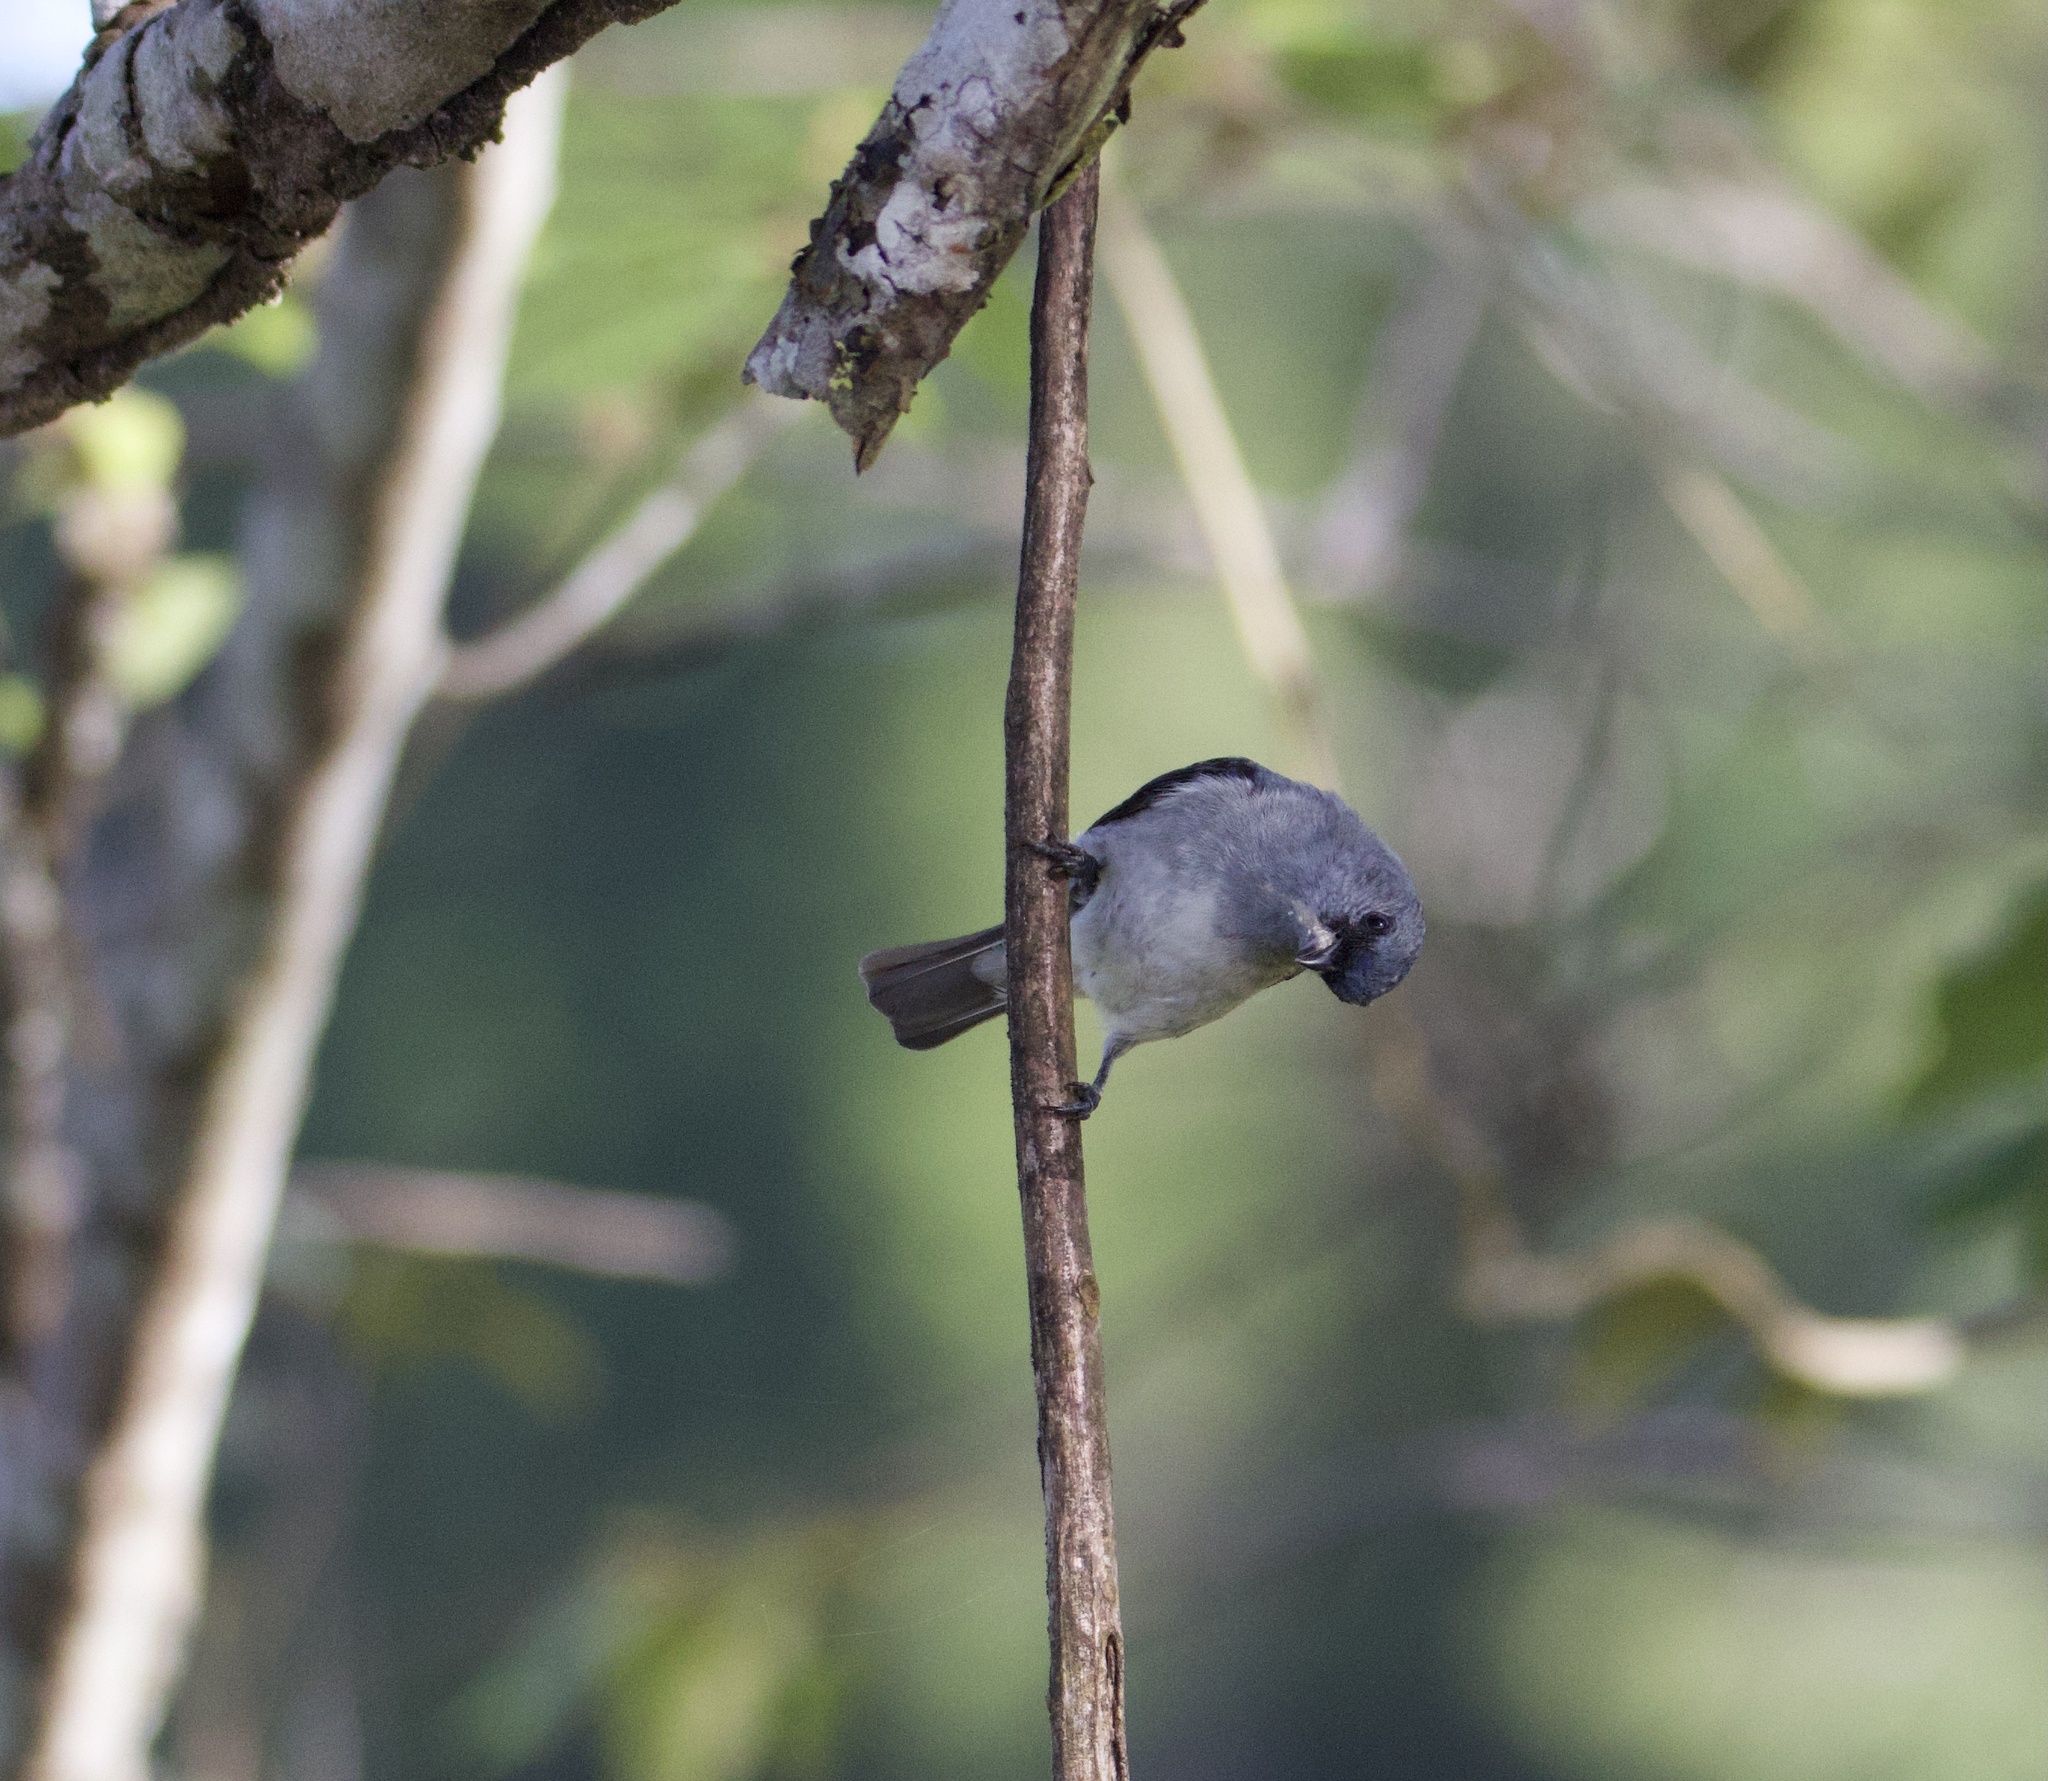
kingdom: Animalia
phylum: Chordata
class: Aves
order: Passeriformes
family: Thraupidae
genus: Tangara
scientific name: Tangara inornata
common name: Plain-colored tanager
